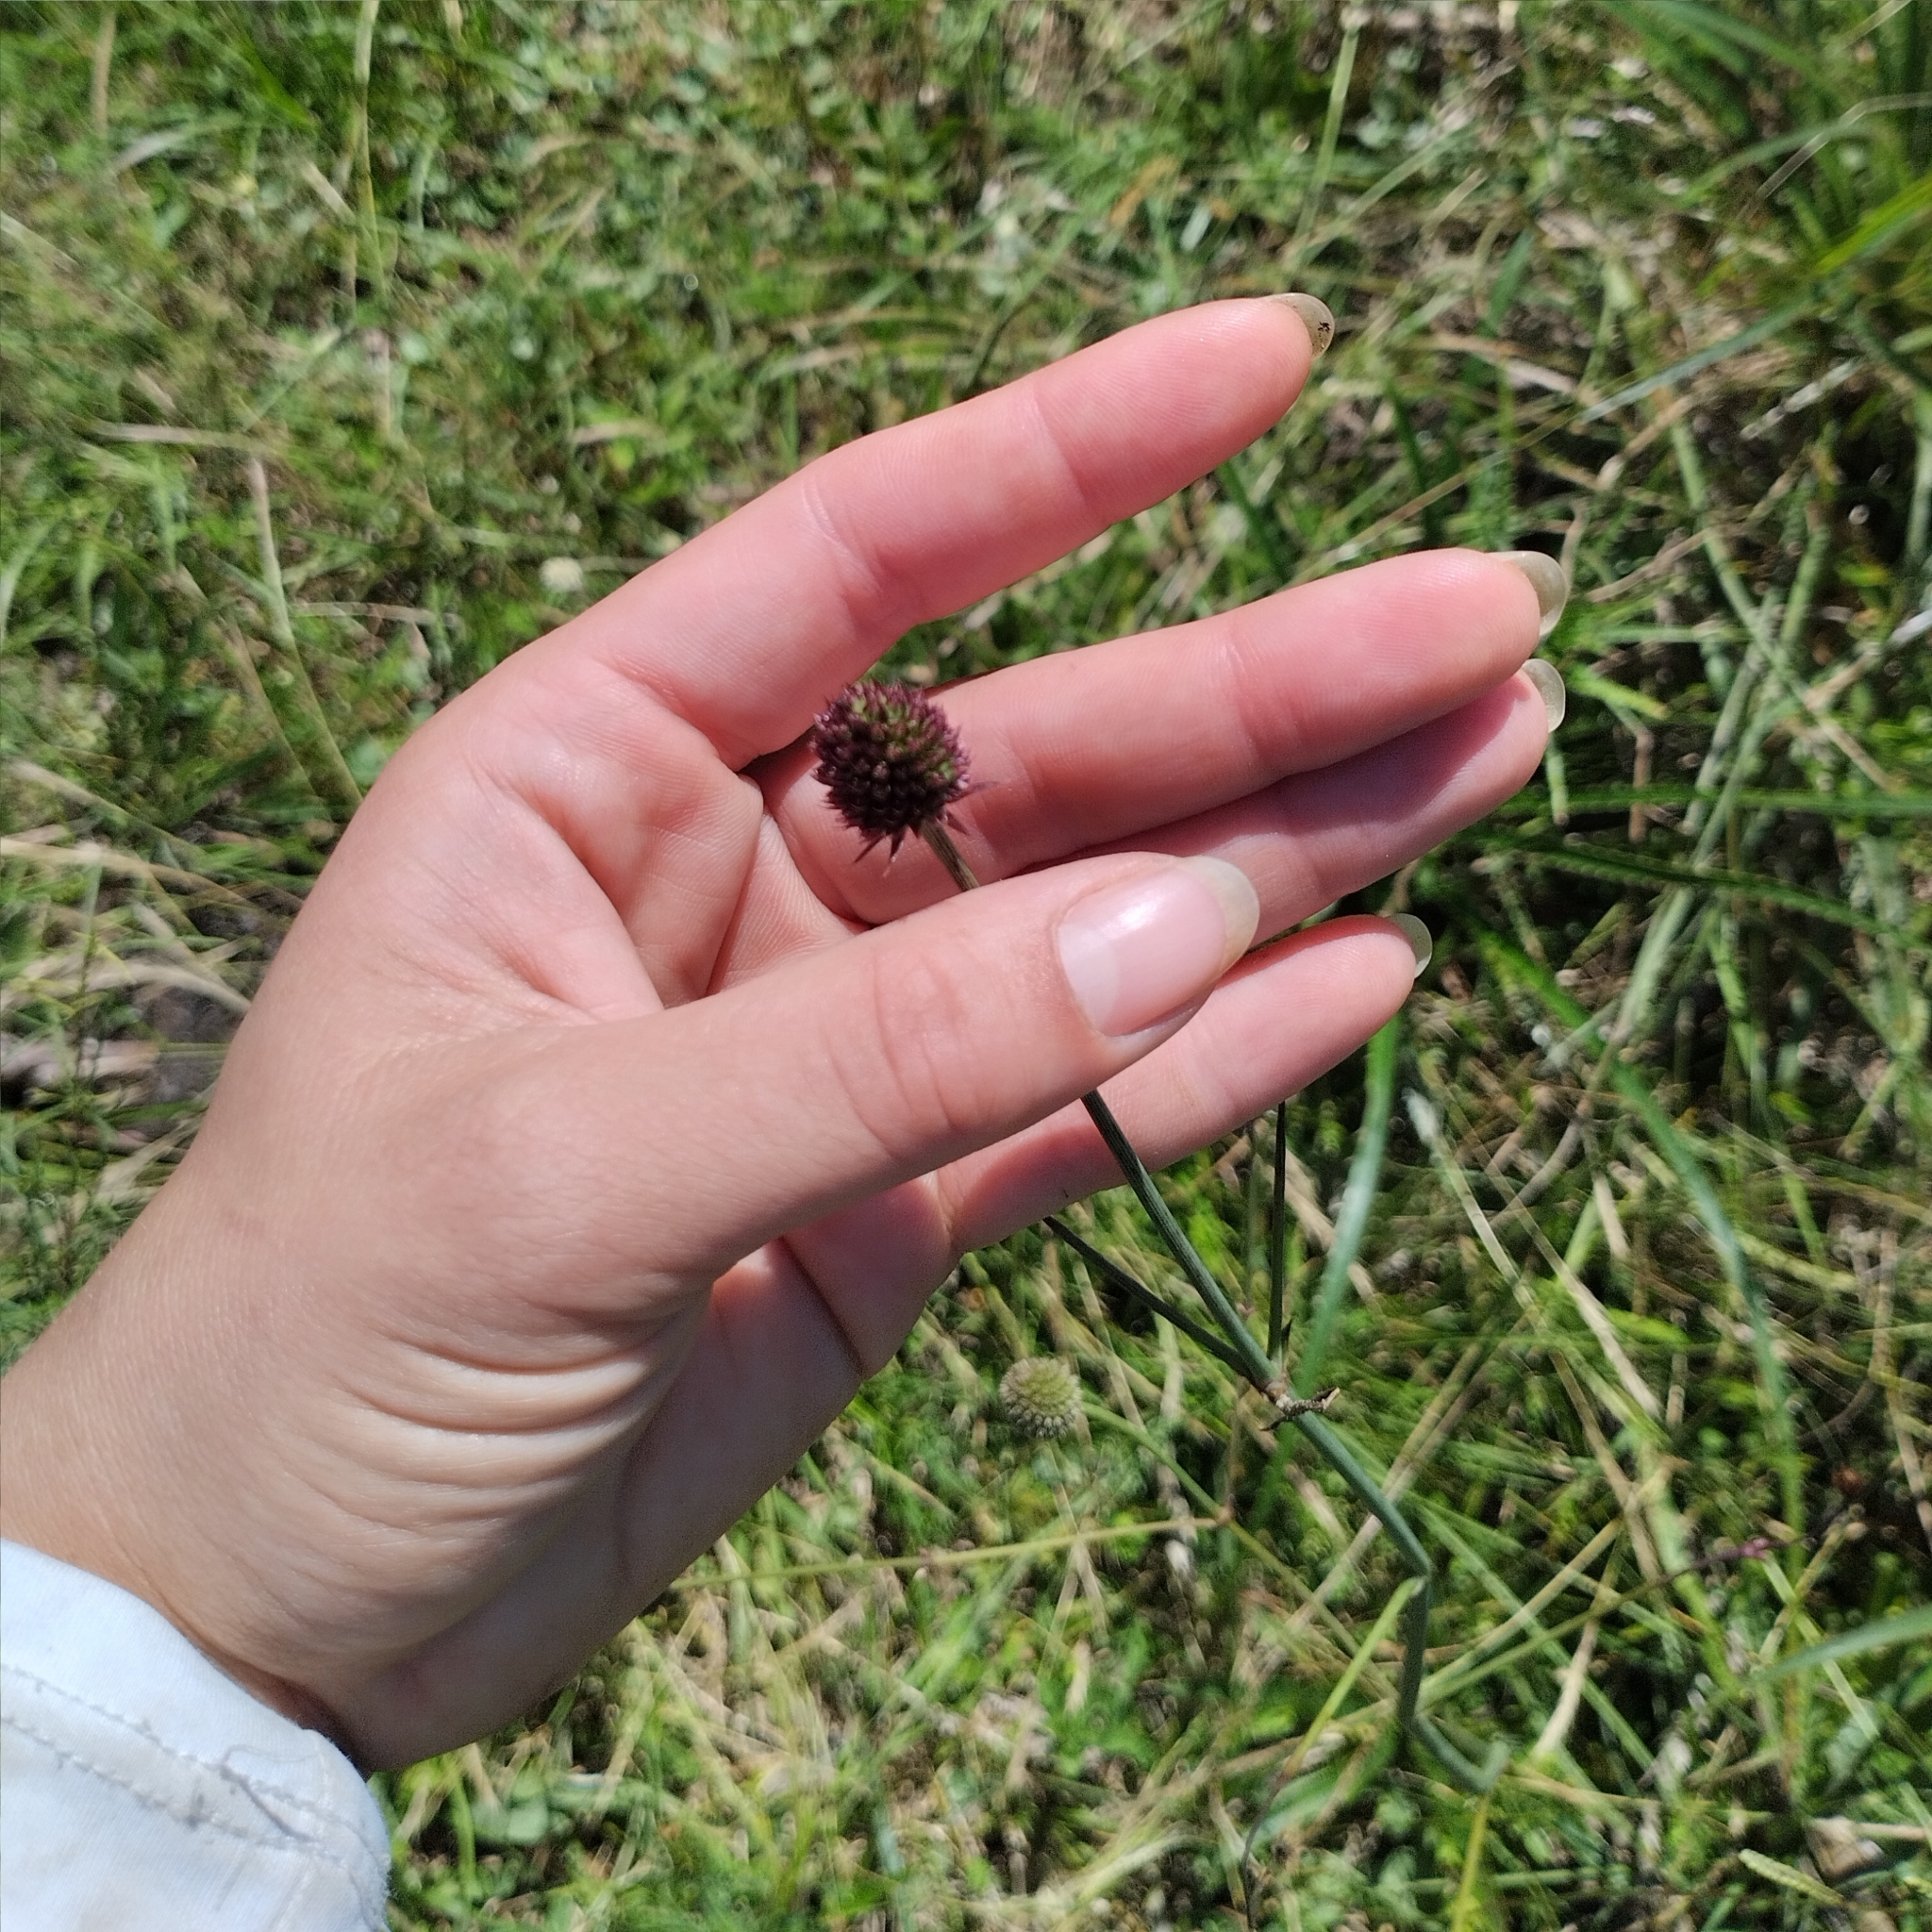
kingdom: Plantae
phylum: Tracheophyta
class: Magnoliopsida
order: Apiales
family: Apiaceae
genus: Eryngium
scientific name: Eryngium sanguisorba
